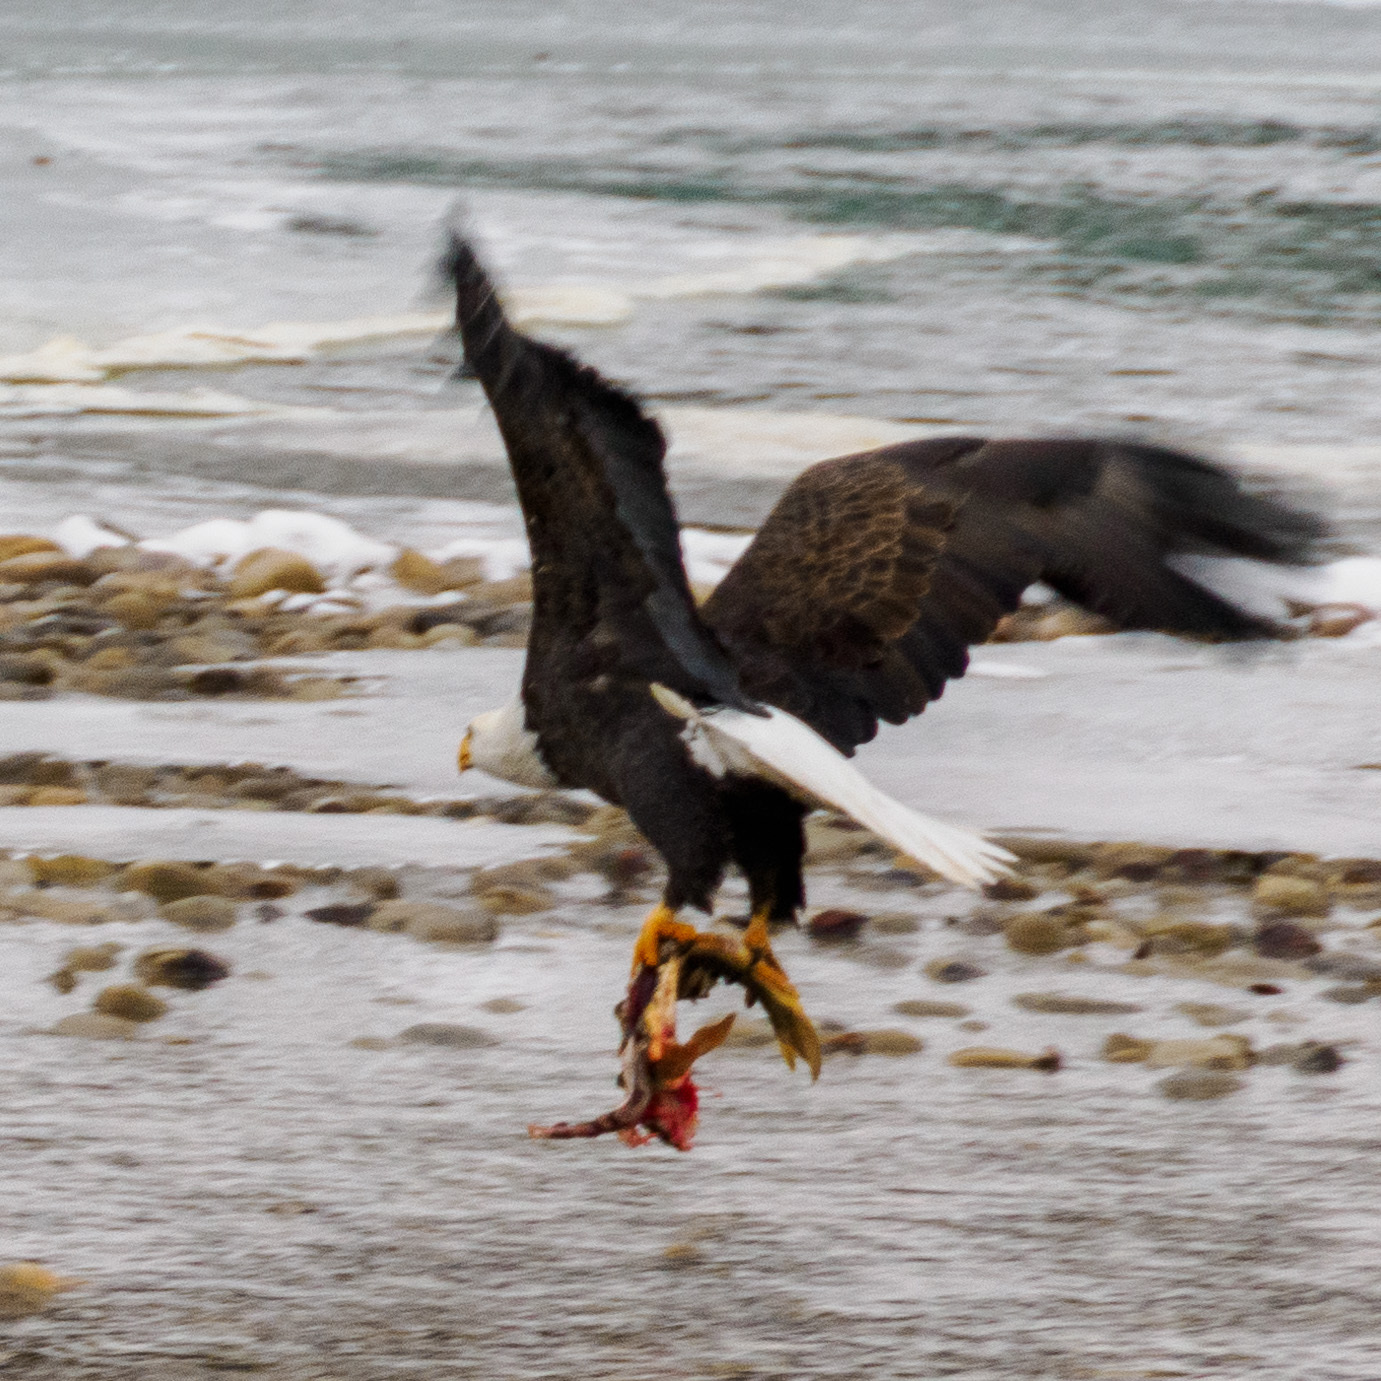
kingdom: Animalia
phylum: Chordata
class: Aves
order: Accipitriformes
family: Accipitridae
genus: Haliaeetus
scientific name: Haliaeetus leucocephalus
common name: Bald eagle
